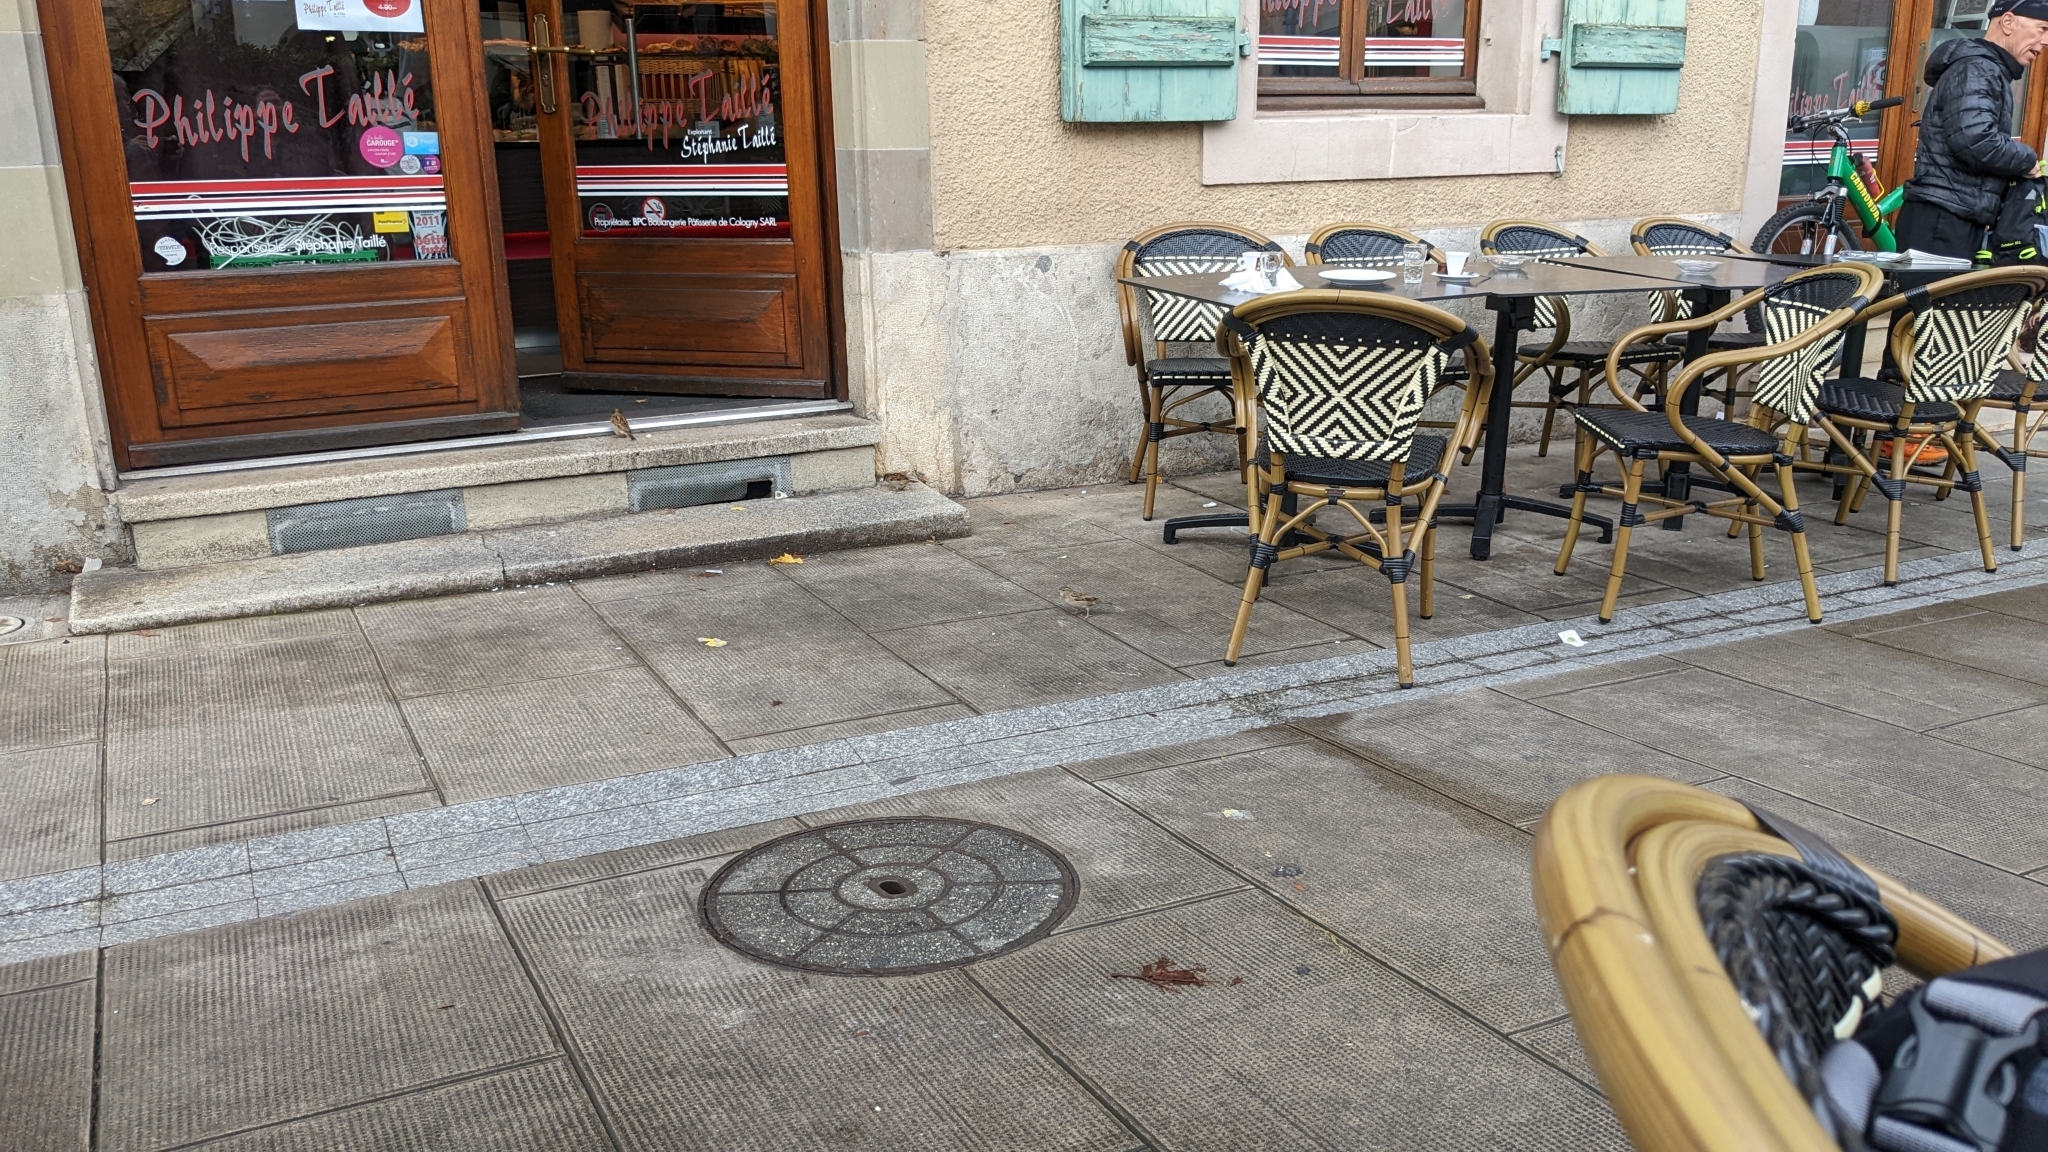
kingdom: Animalia
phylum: Chordata
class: Aves
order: Passeriformes
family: Passeridae
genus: Passer
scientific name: Passer domesticus
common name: House sparrow
